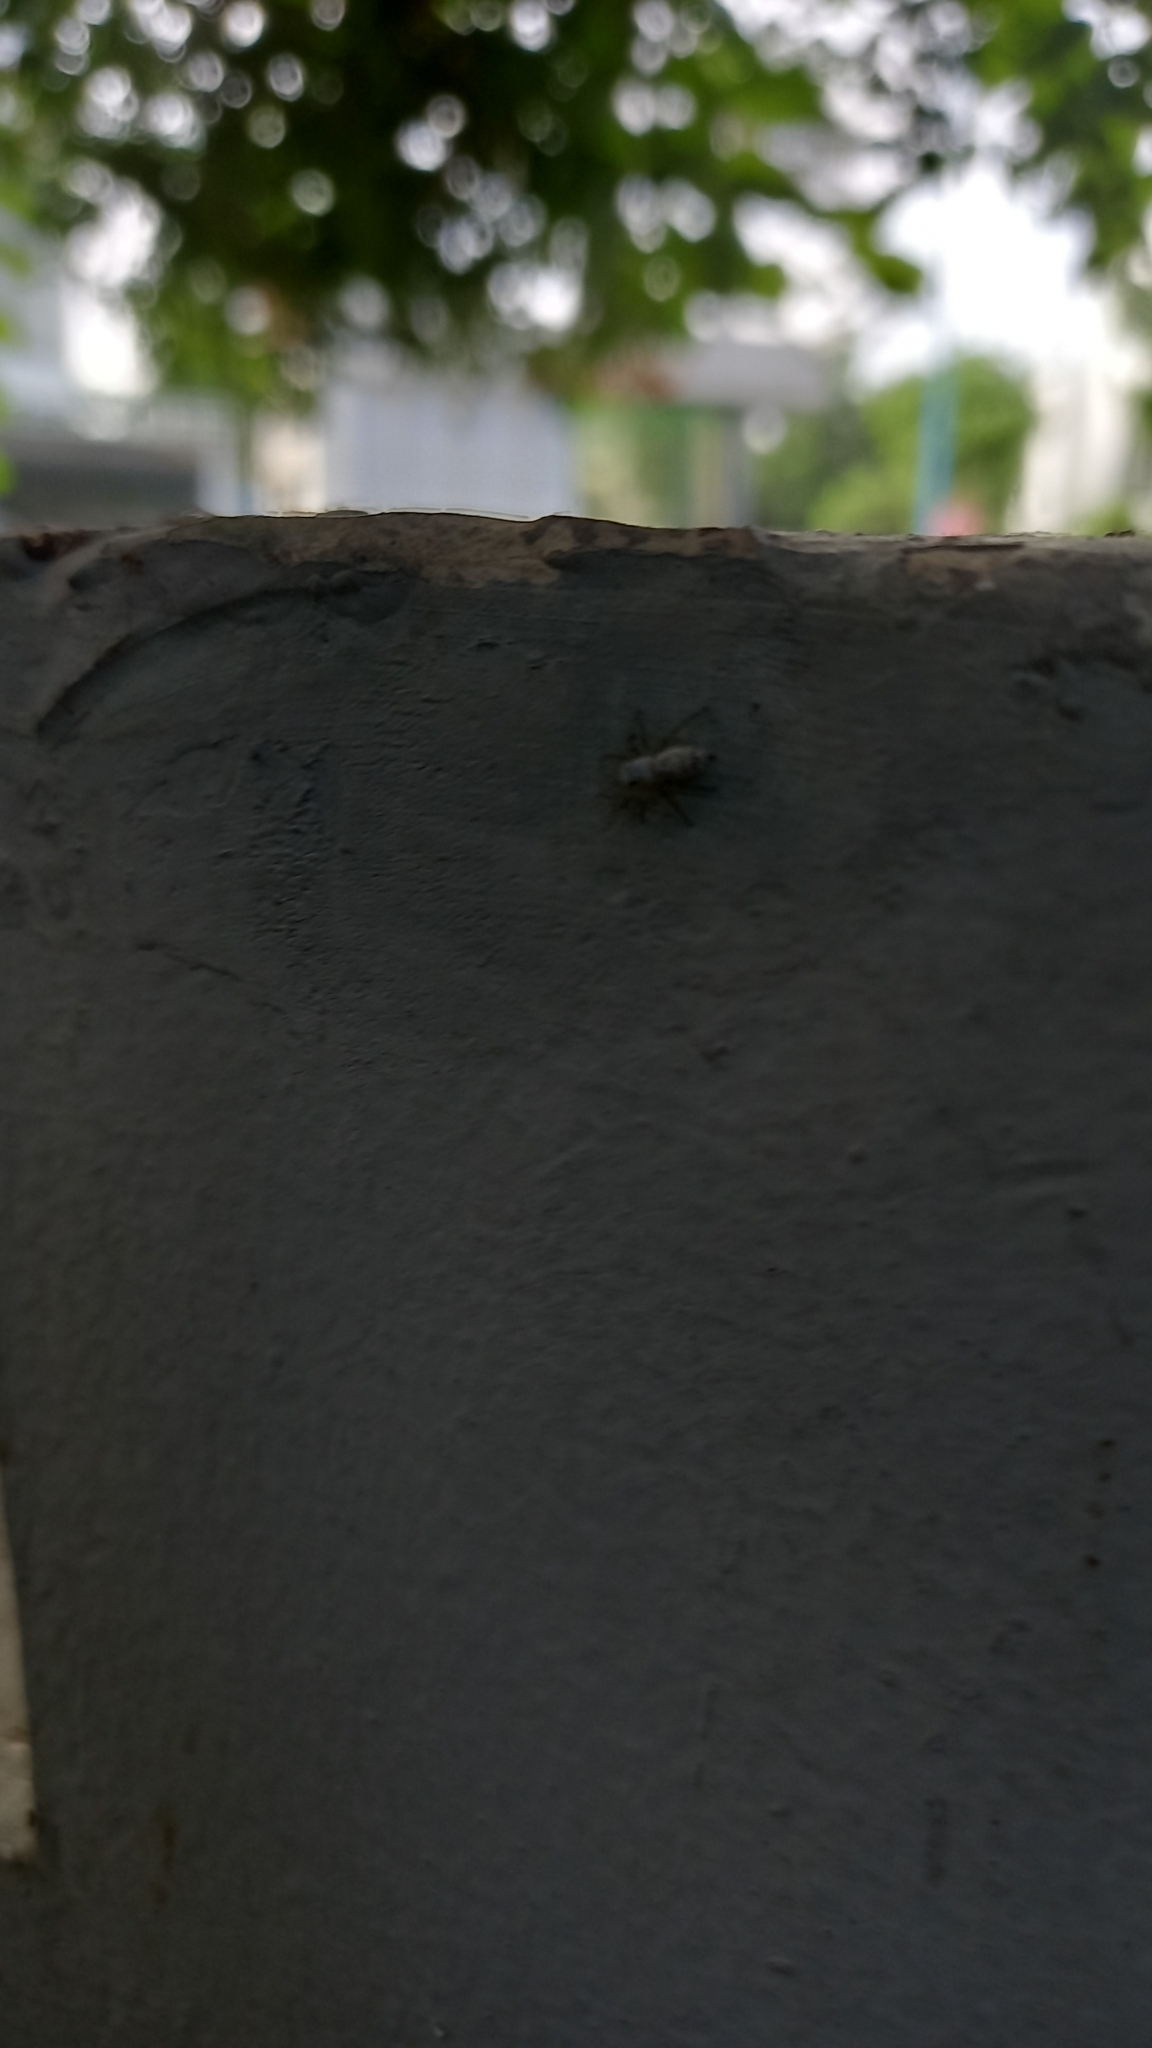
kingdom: Animalia
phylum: Arthropoda
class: Arachnida
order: Araneae
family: Salticidae
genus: Cosmophasis
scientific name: Cosmophasis lami
